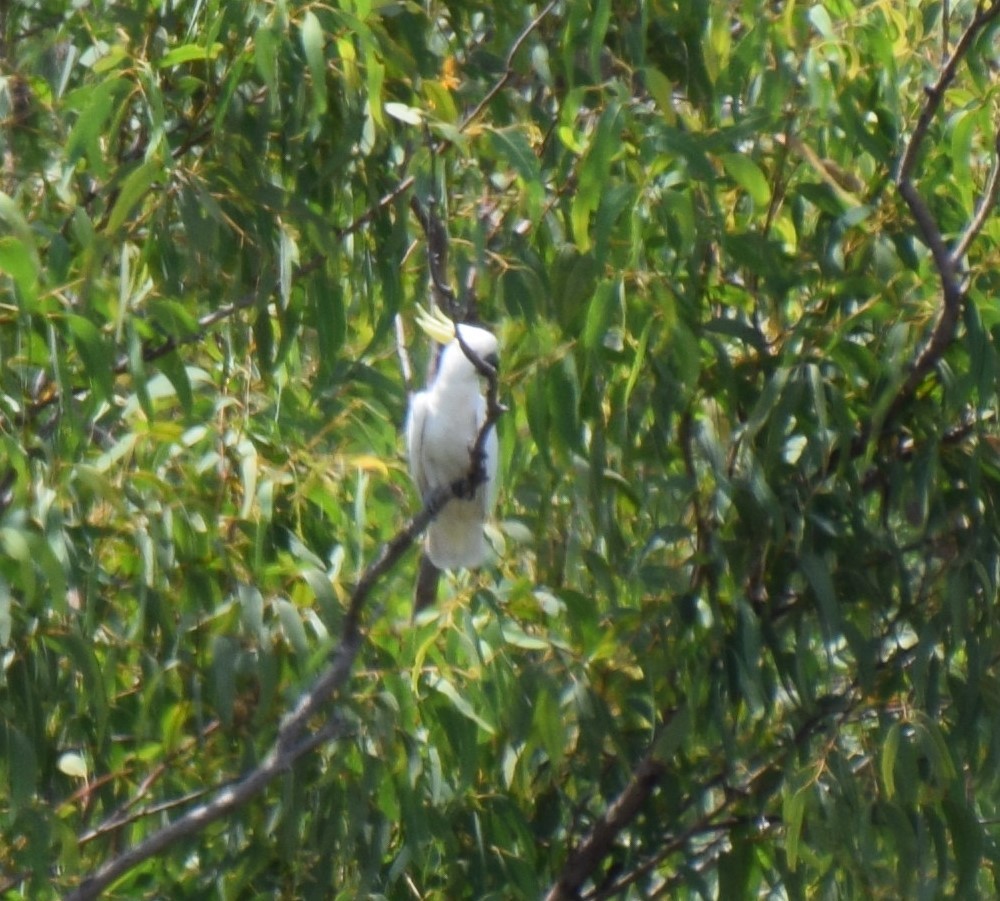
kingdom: Animalia
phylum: Chordata
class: Aves
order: Psittaciformes
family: Psittacidae
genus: Cacatua
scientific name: Cacatua galerita
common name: Sulphur-crested cockatoo
